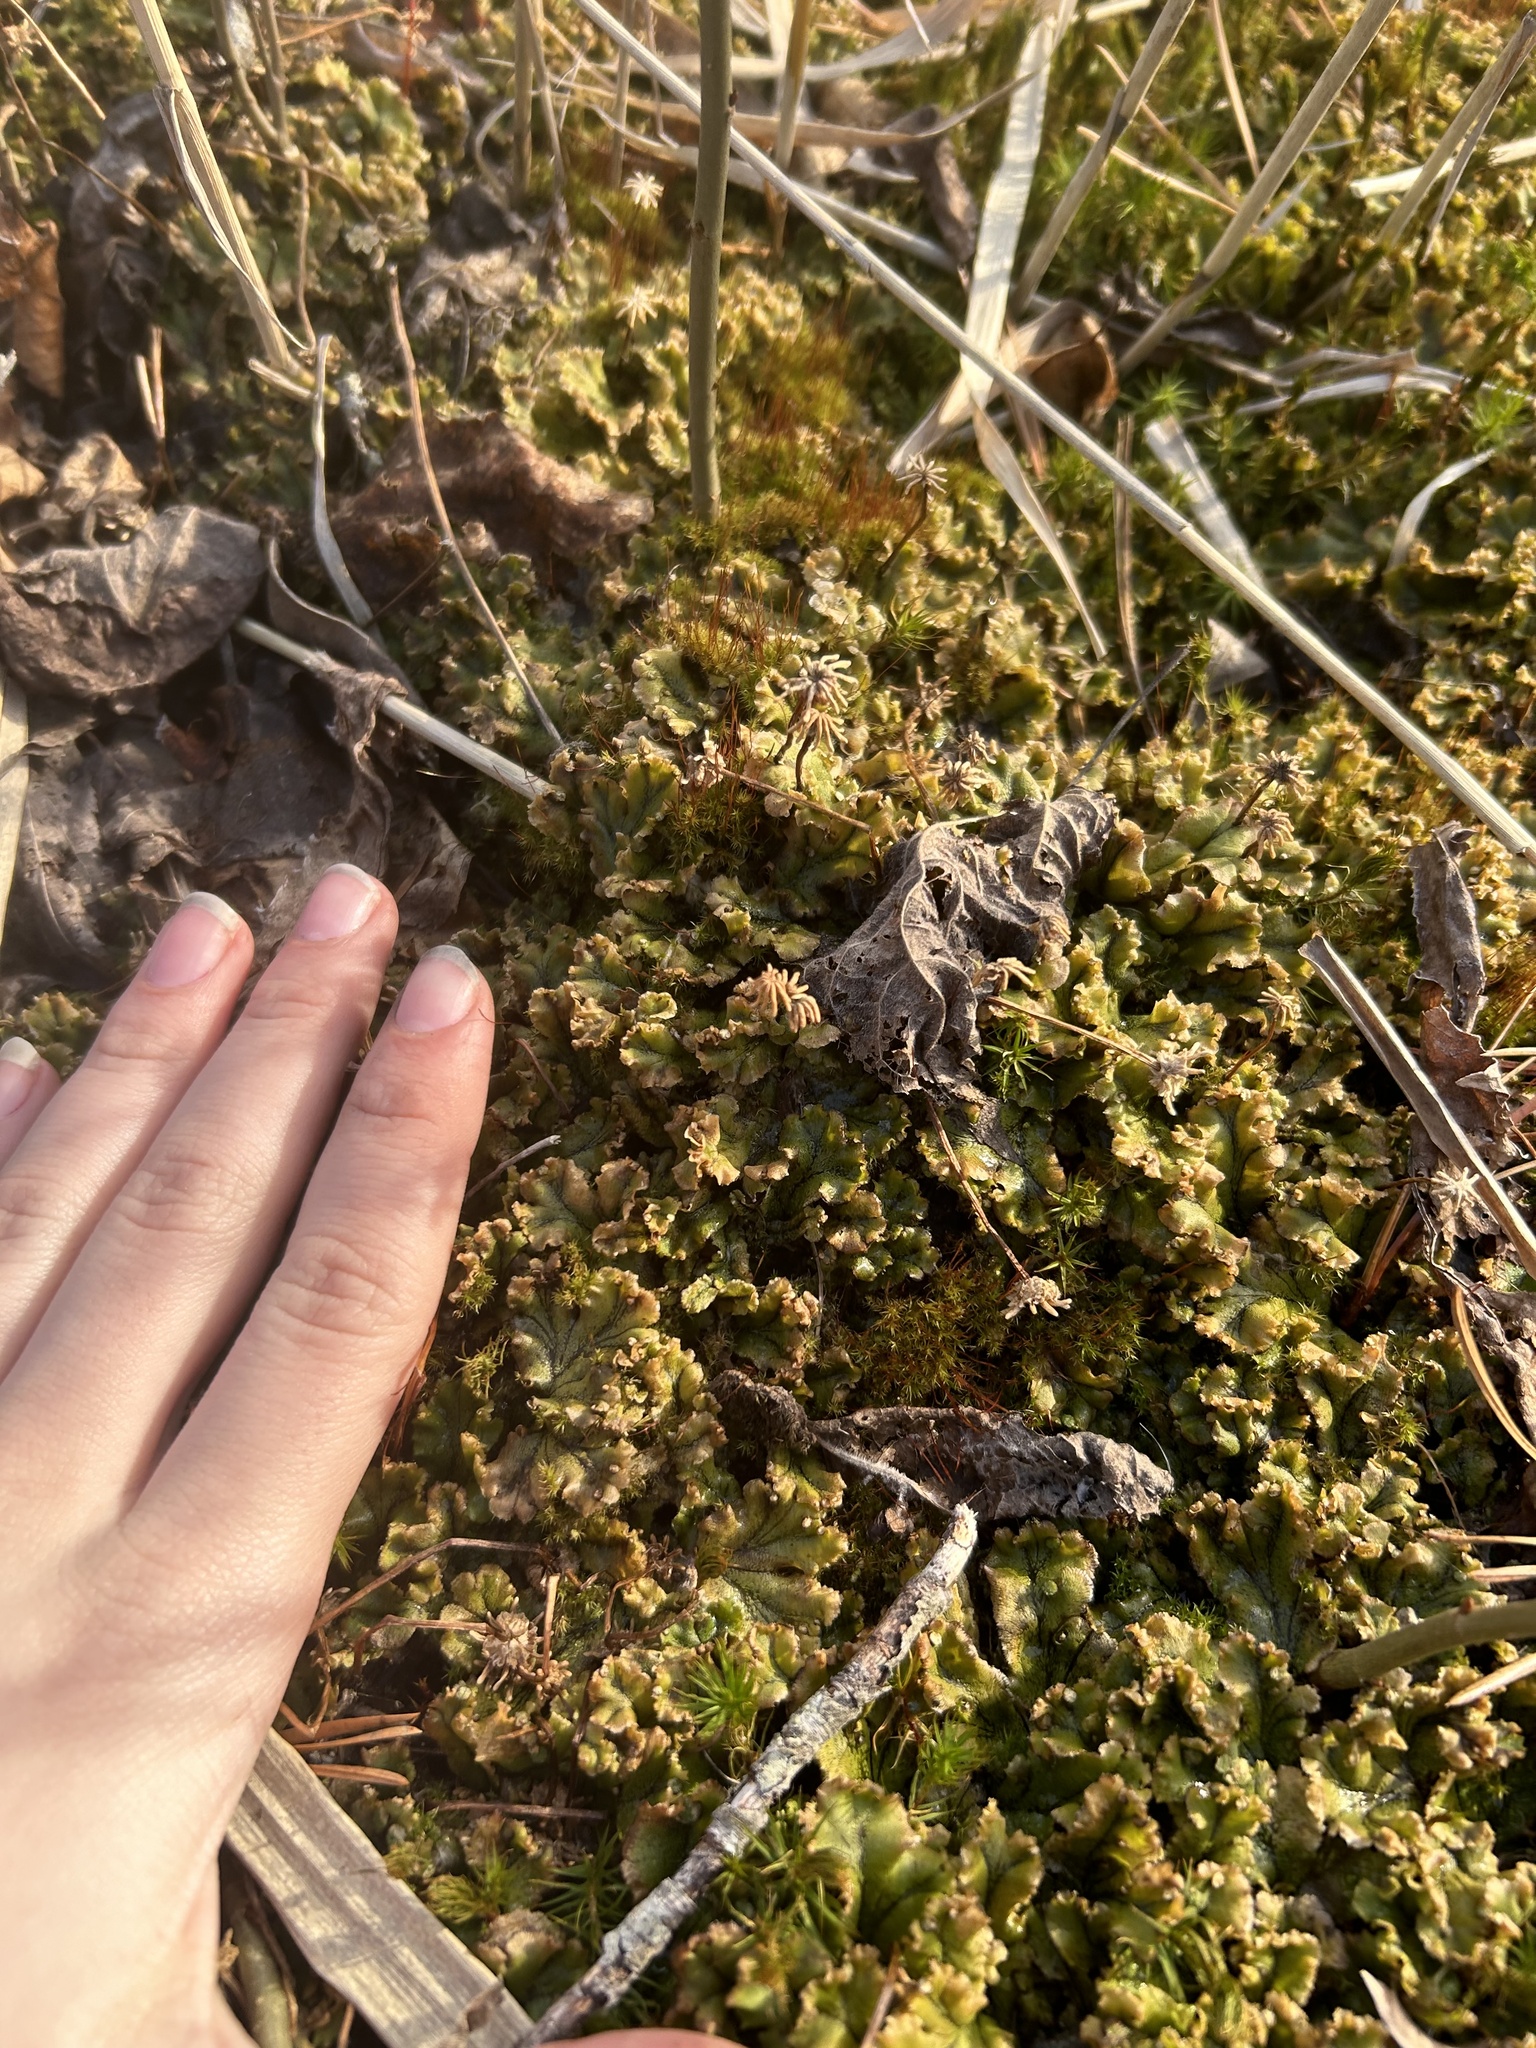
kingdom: Plantae
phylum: Marchantiophyta
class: Marchantiopsida
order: Marchantiales
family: Marchantiaceae
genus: Marchantia
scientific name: Marchantia polymorpha
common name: Common liverwort
